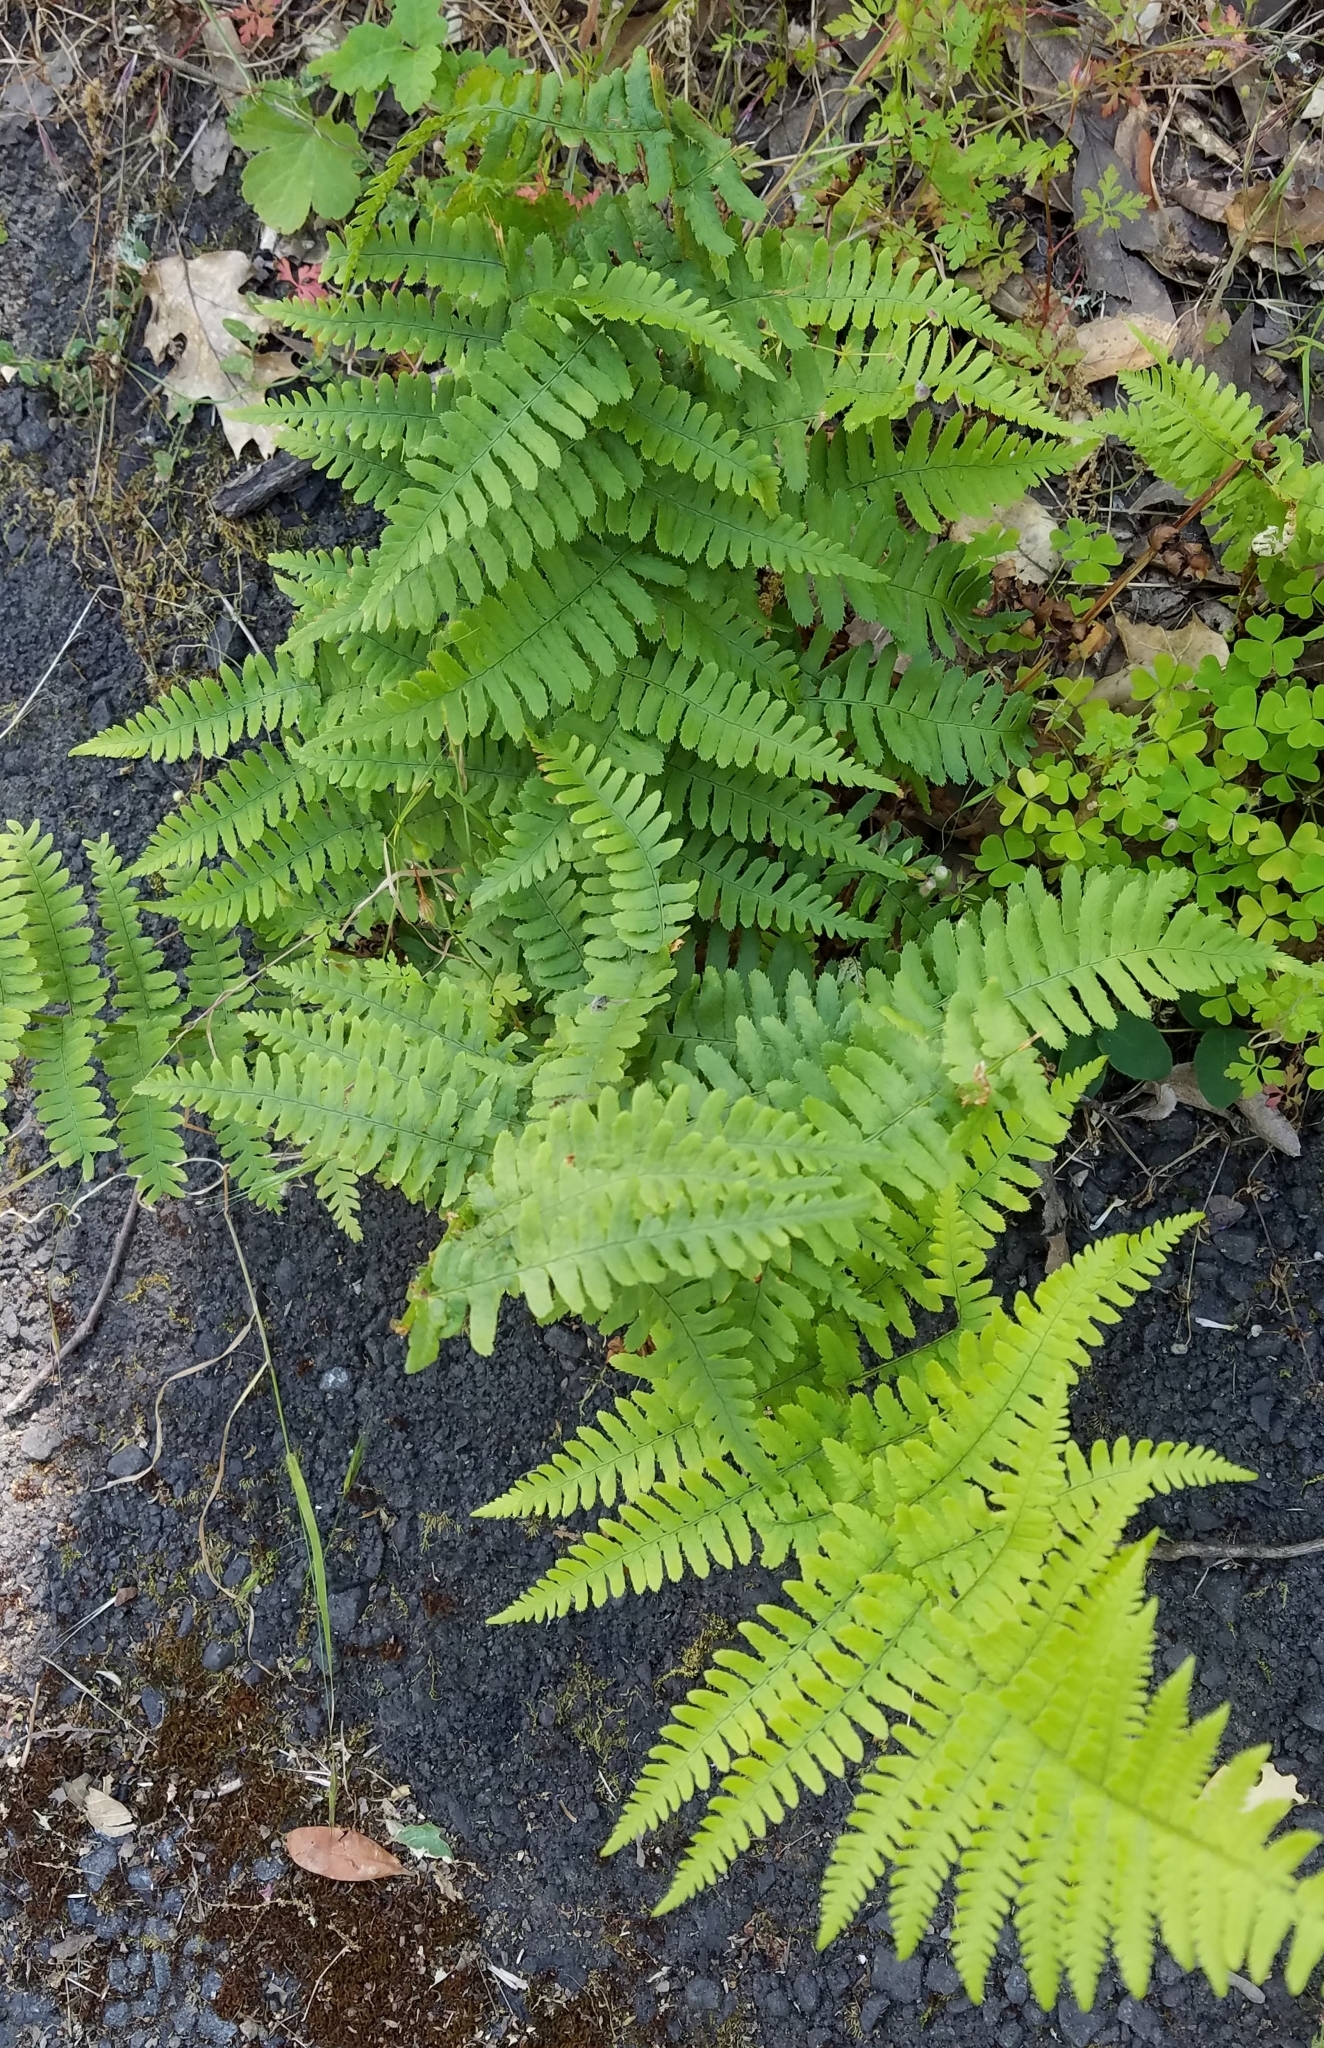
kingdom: Plantae
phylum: Tracheophyta
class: Polypodiopsida
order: Polypodiales
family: Dryopteridaceae
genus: Dryopteris
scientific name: Dryopteris arguta
